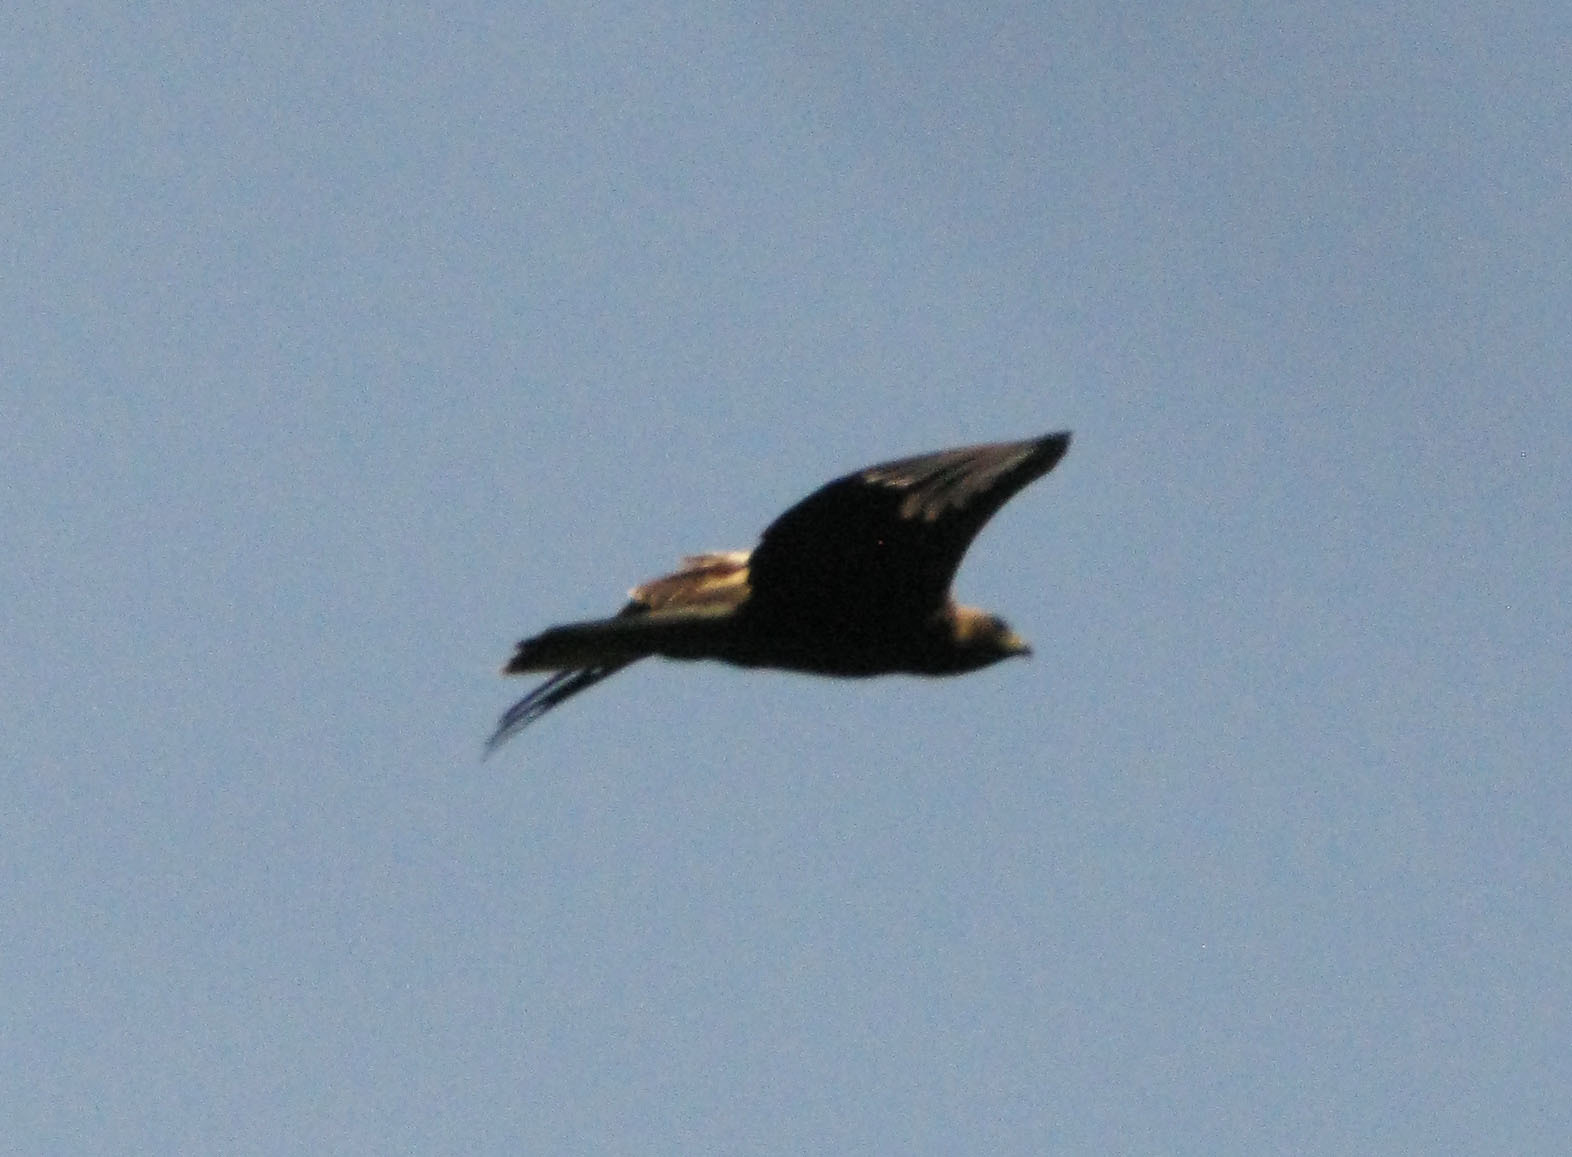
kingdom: Animalia
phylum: Chordata
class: Aves
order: Accipitriformes
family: Accipitridae
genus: Hieraaetus
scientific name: Hieraaetus pennatus
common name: Booted eagle
